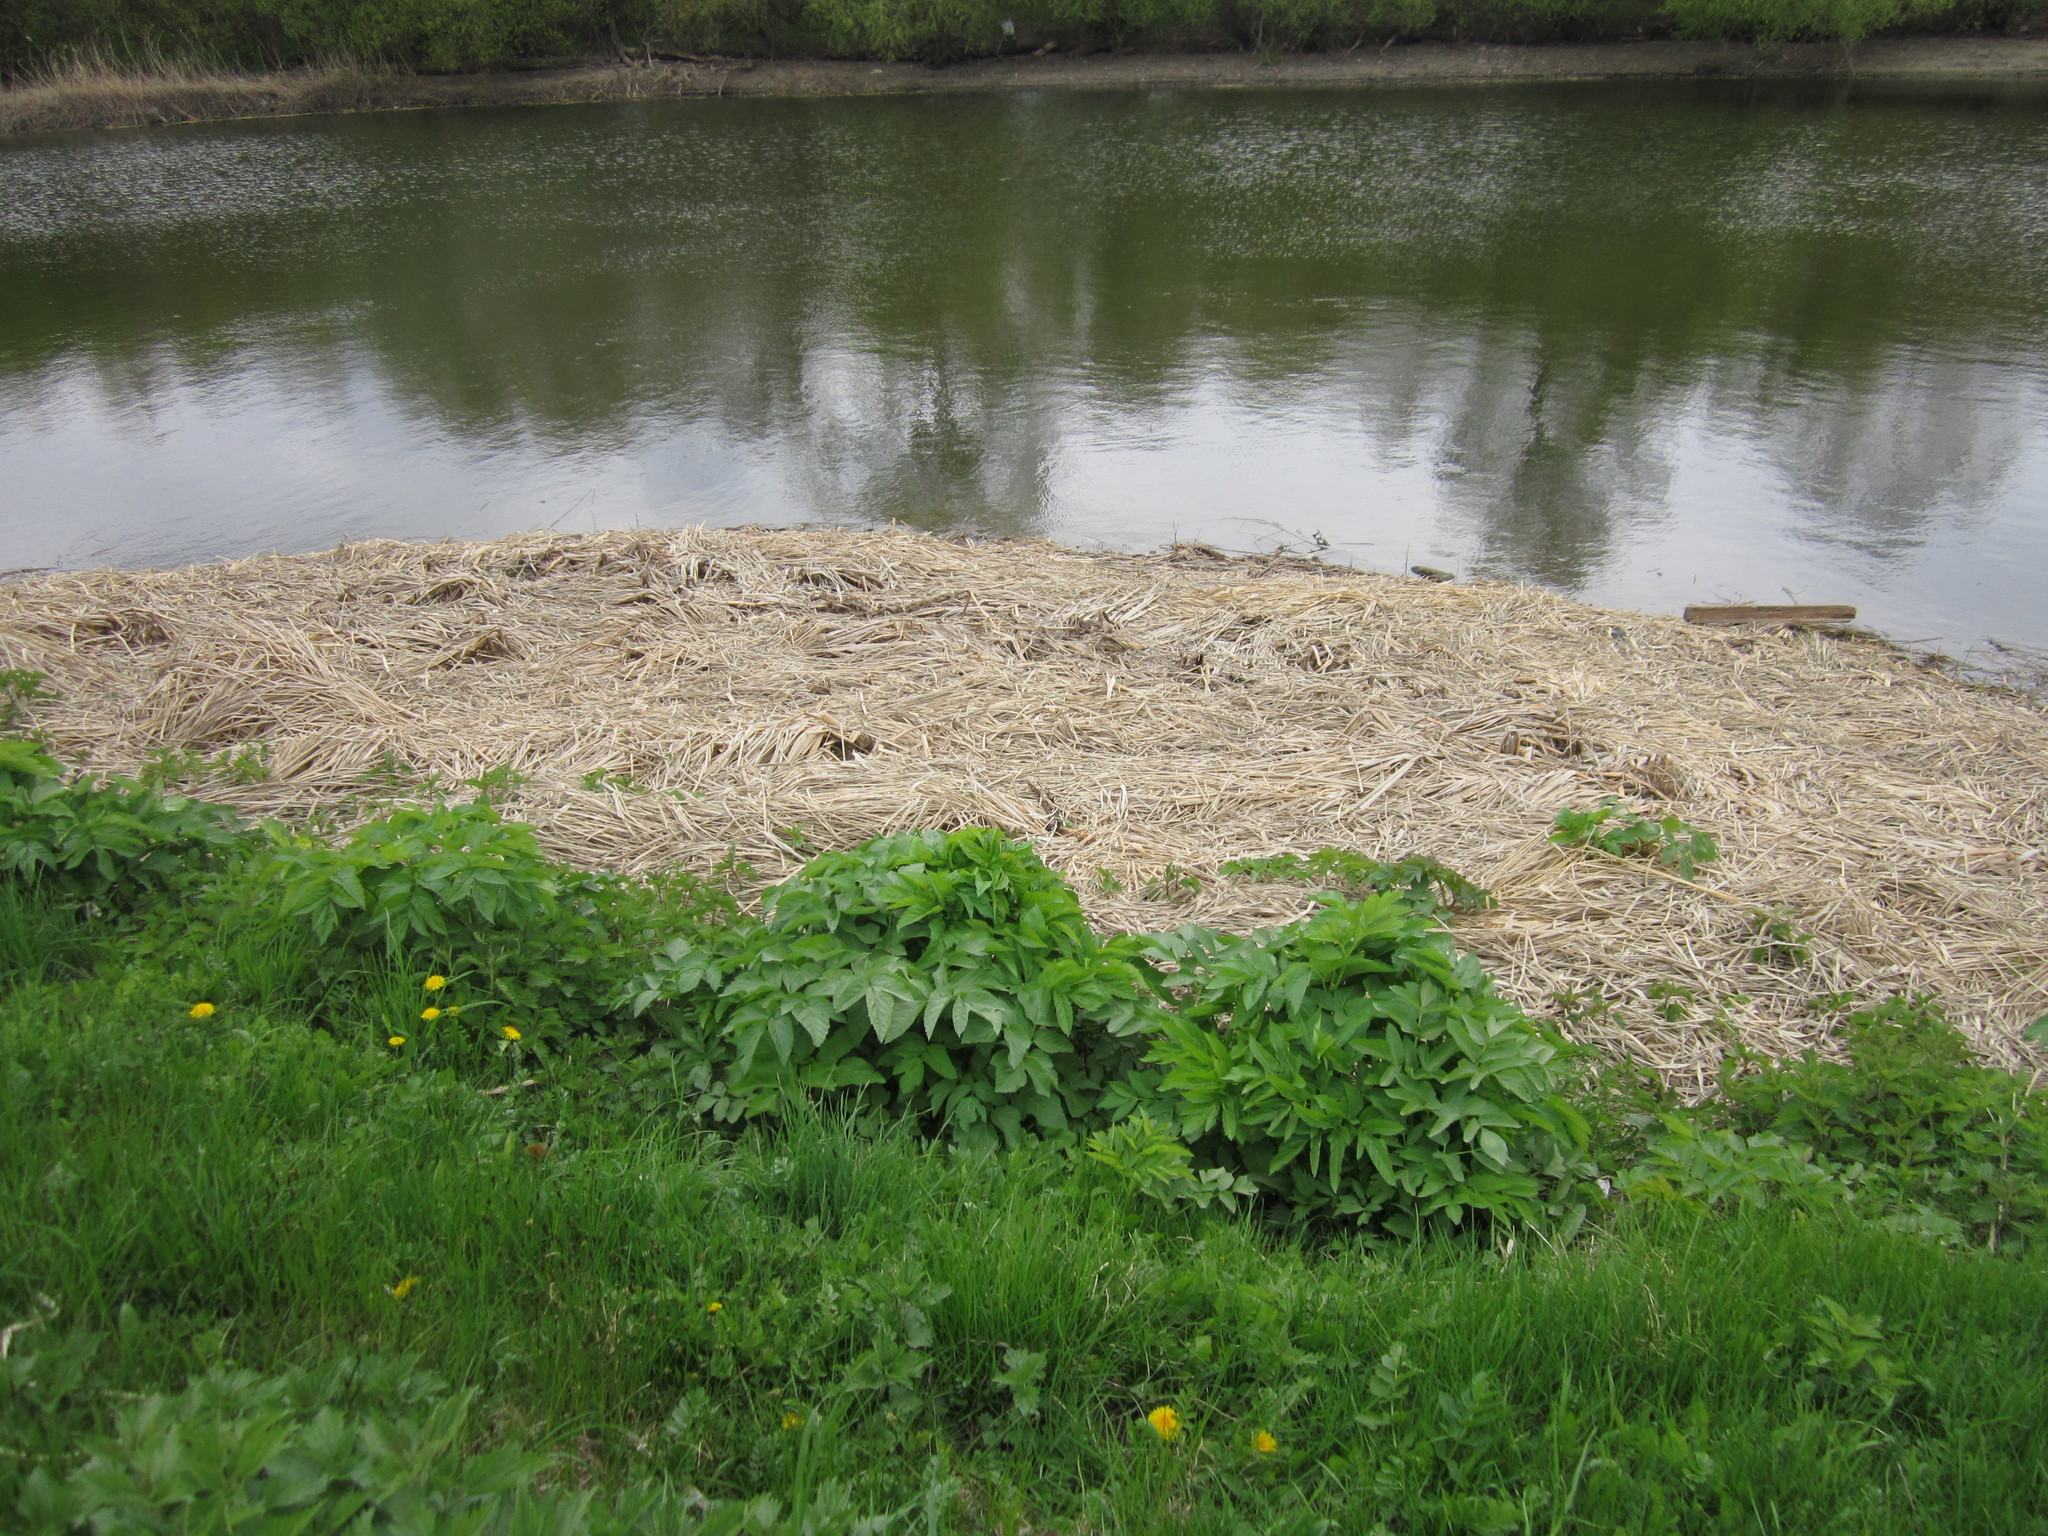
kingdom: Plantae
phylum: Tracheophyta
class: Magnoliopsida
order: Apiales
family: Apiaceae
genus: Angelica
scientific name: Angelica archangelica
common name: Garden angelica
